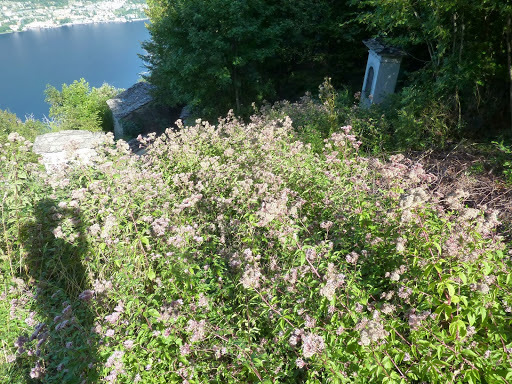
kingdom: Plantae
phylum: Tracheophyta
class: Magnoliopsida
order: Asterales
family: Asteraceae
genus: Eupatorium
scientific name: Eupatorium cannabinum
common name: Hemp-agrimony
